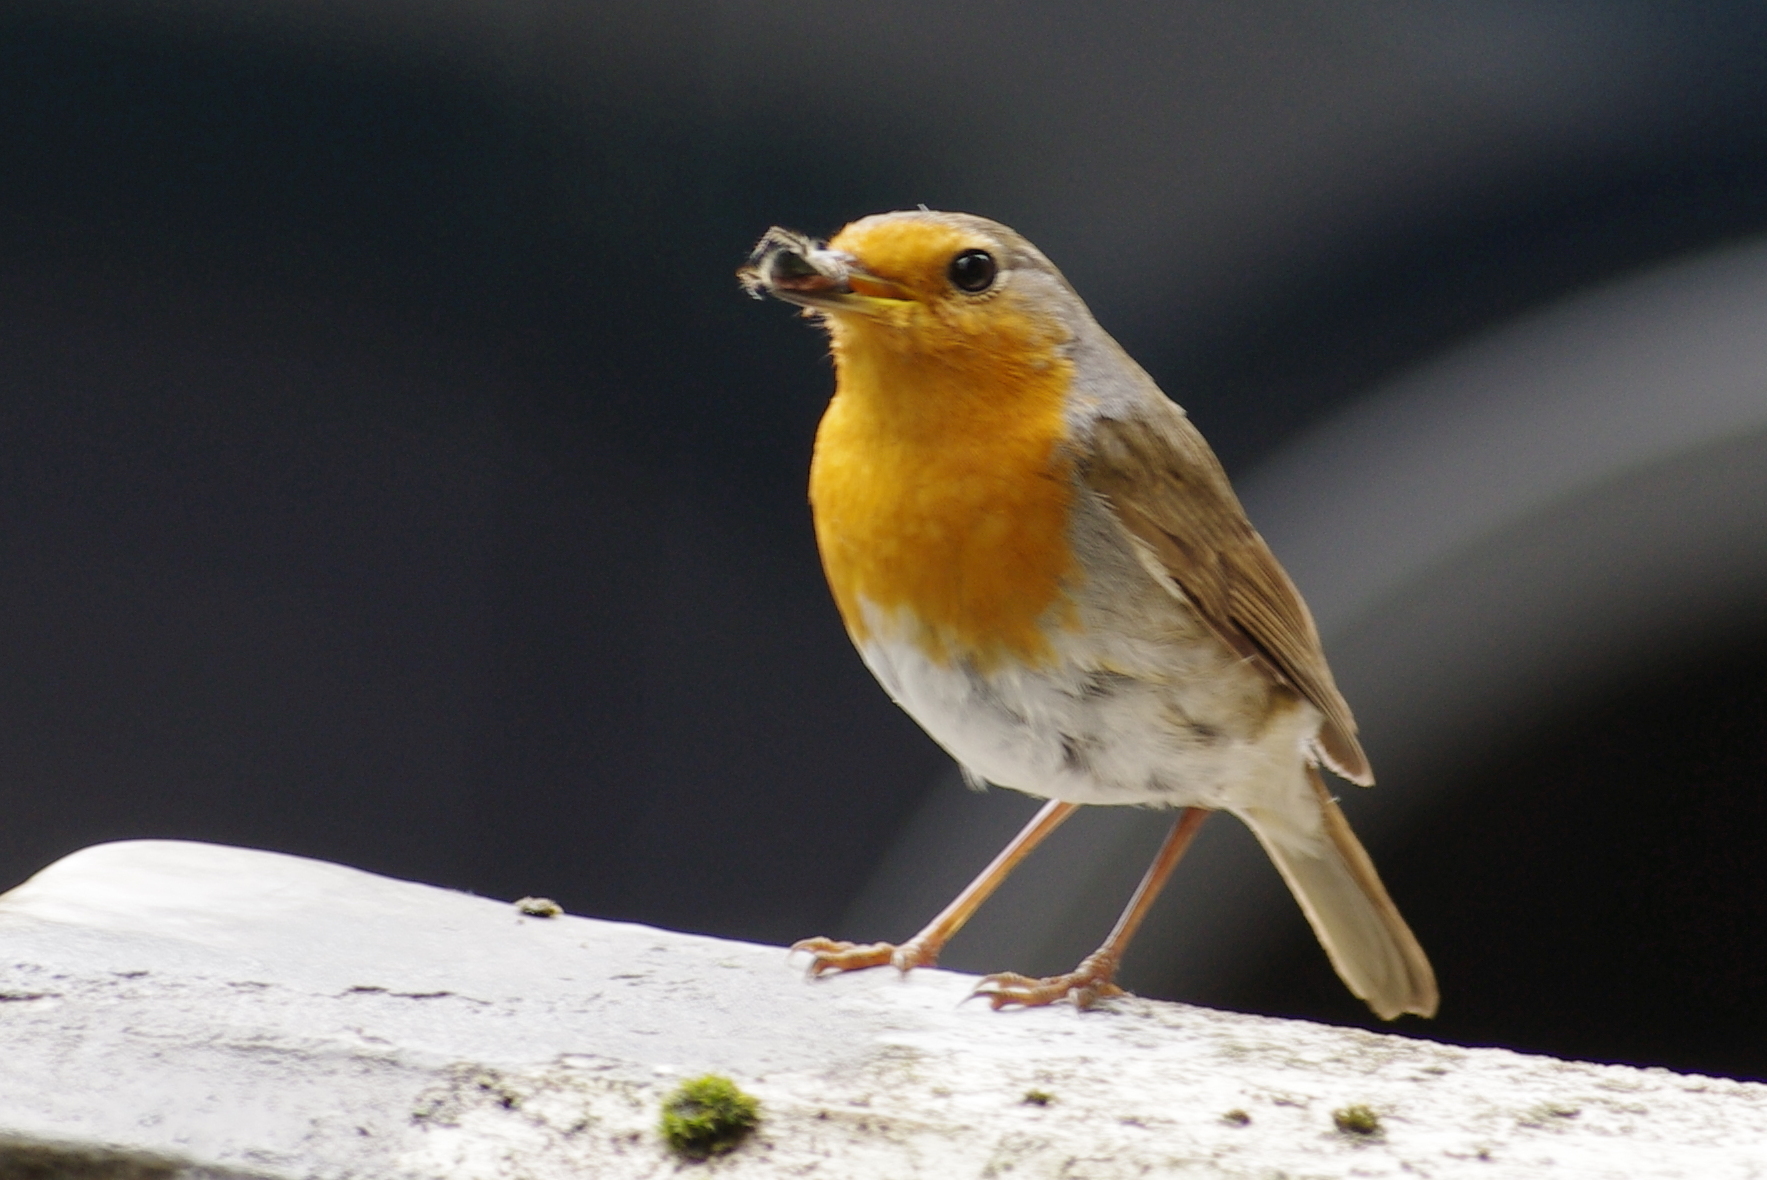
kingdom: Animalia
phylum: Chordata
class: Aves
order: Passeriformes
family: Muscicapidae
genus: Erithacus
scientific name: Erithacus rubecula
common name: European robin
